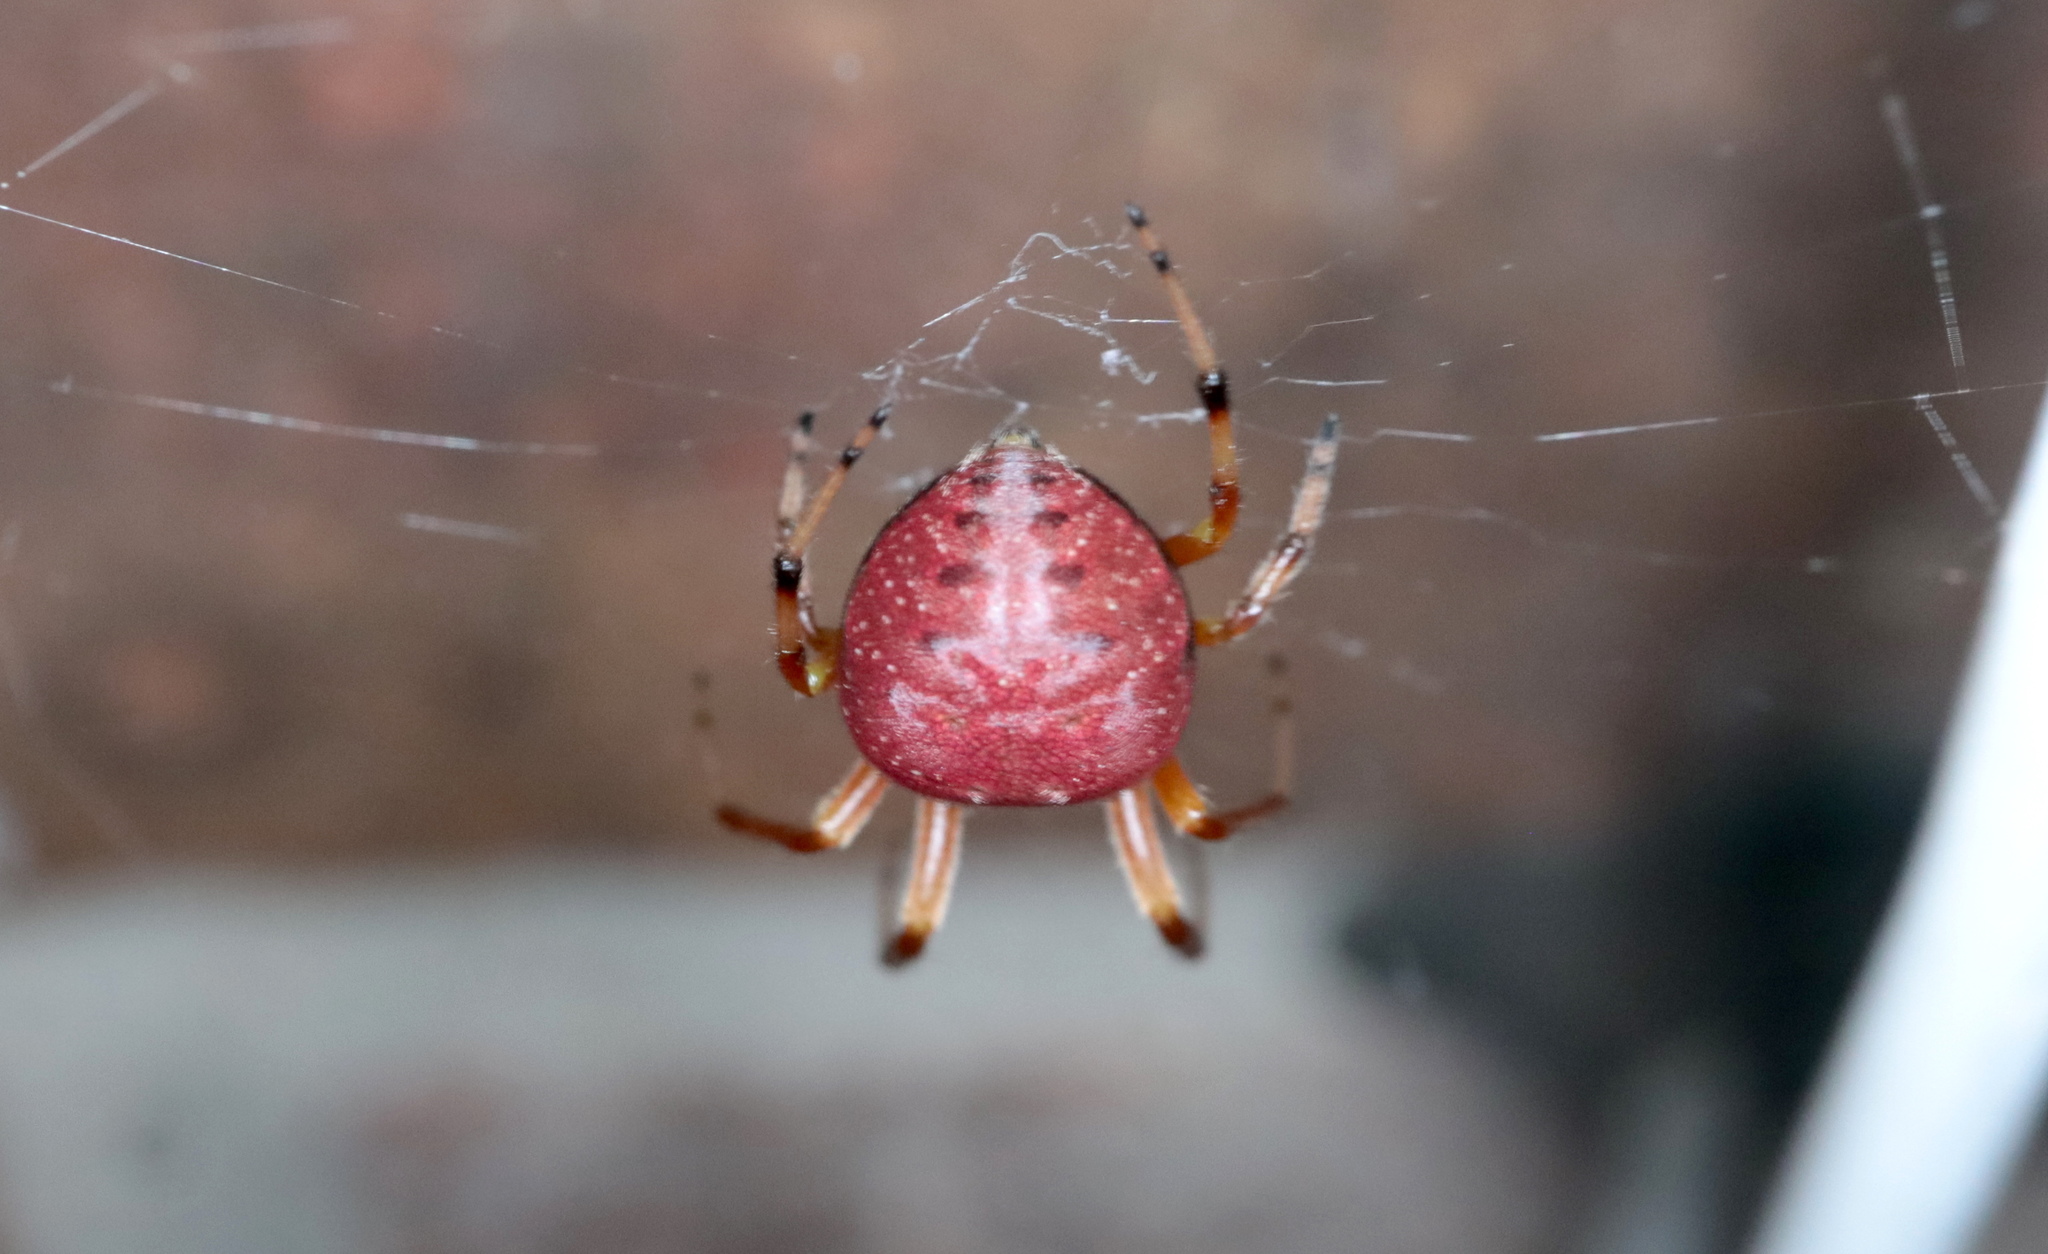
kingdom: Animalia
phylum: Arthropoda
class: Arachnida
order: Araneae
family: Araneidae
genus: Araneus
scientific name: Araneus thaddeus
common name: Lattice orbweaver
